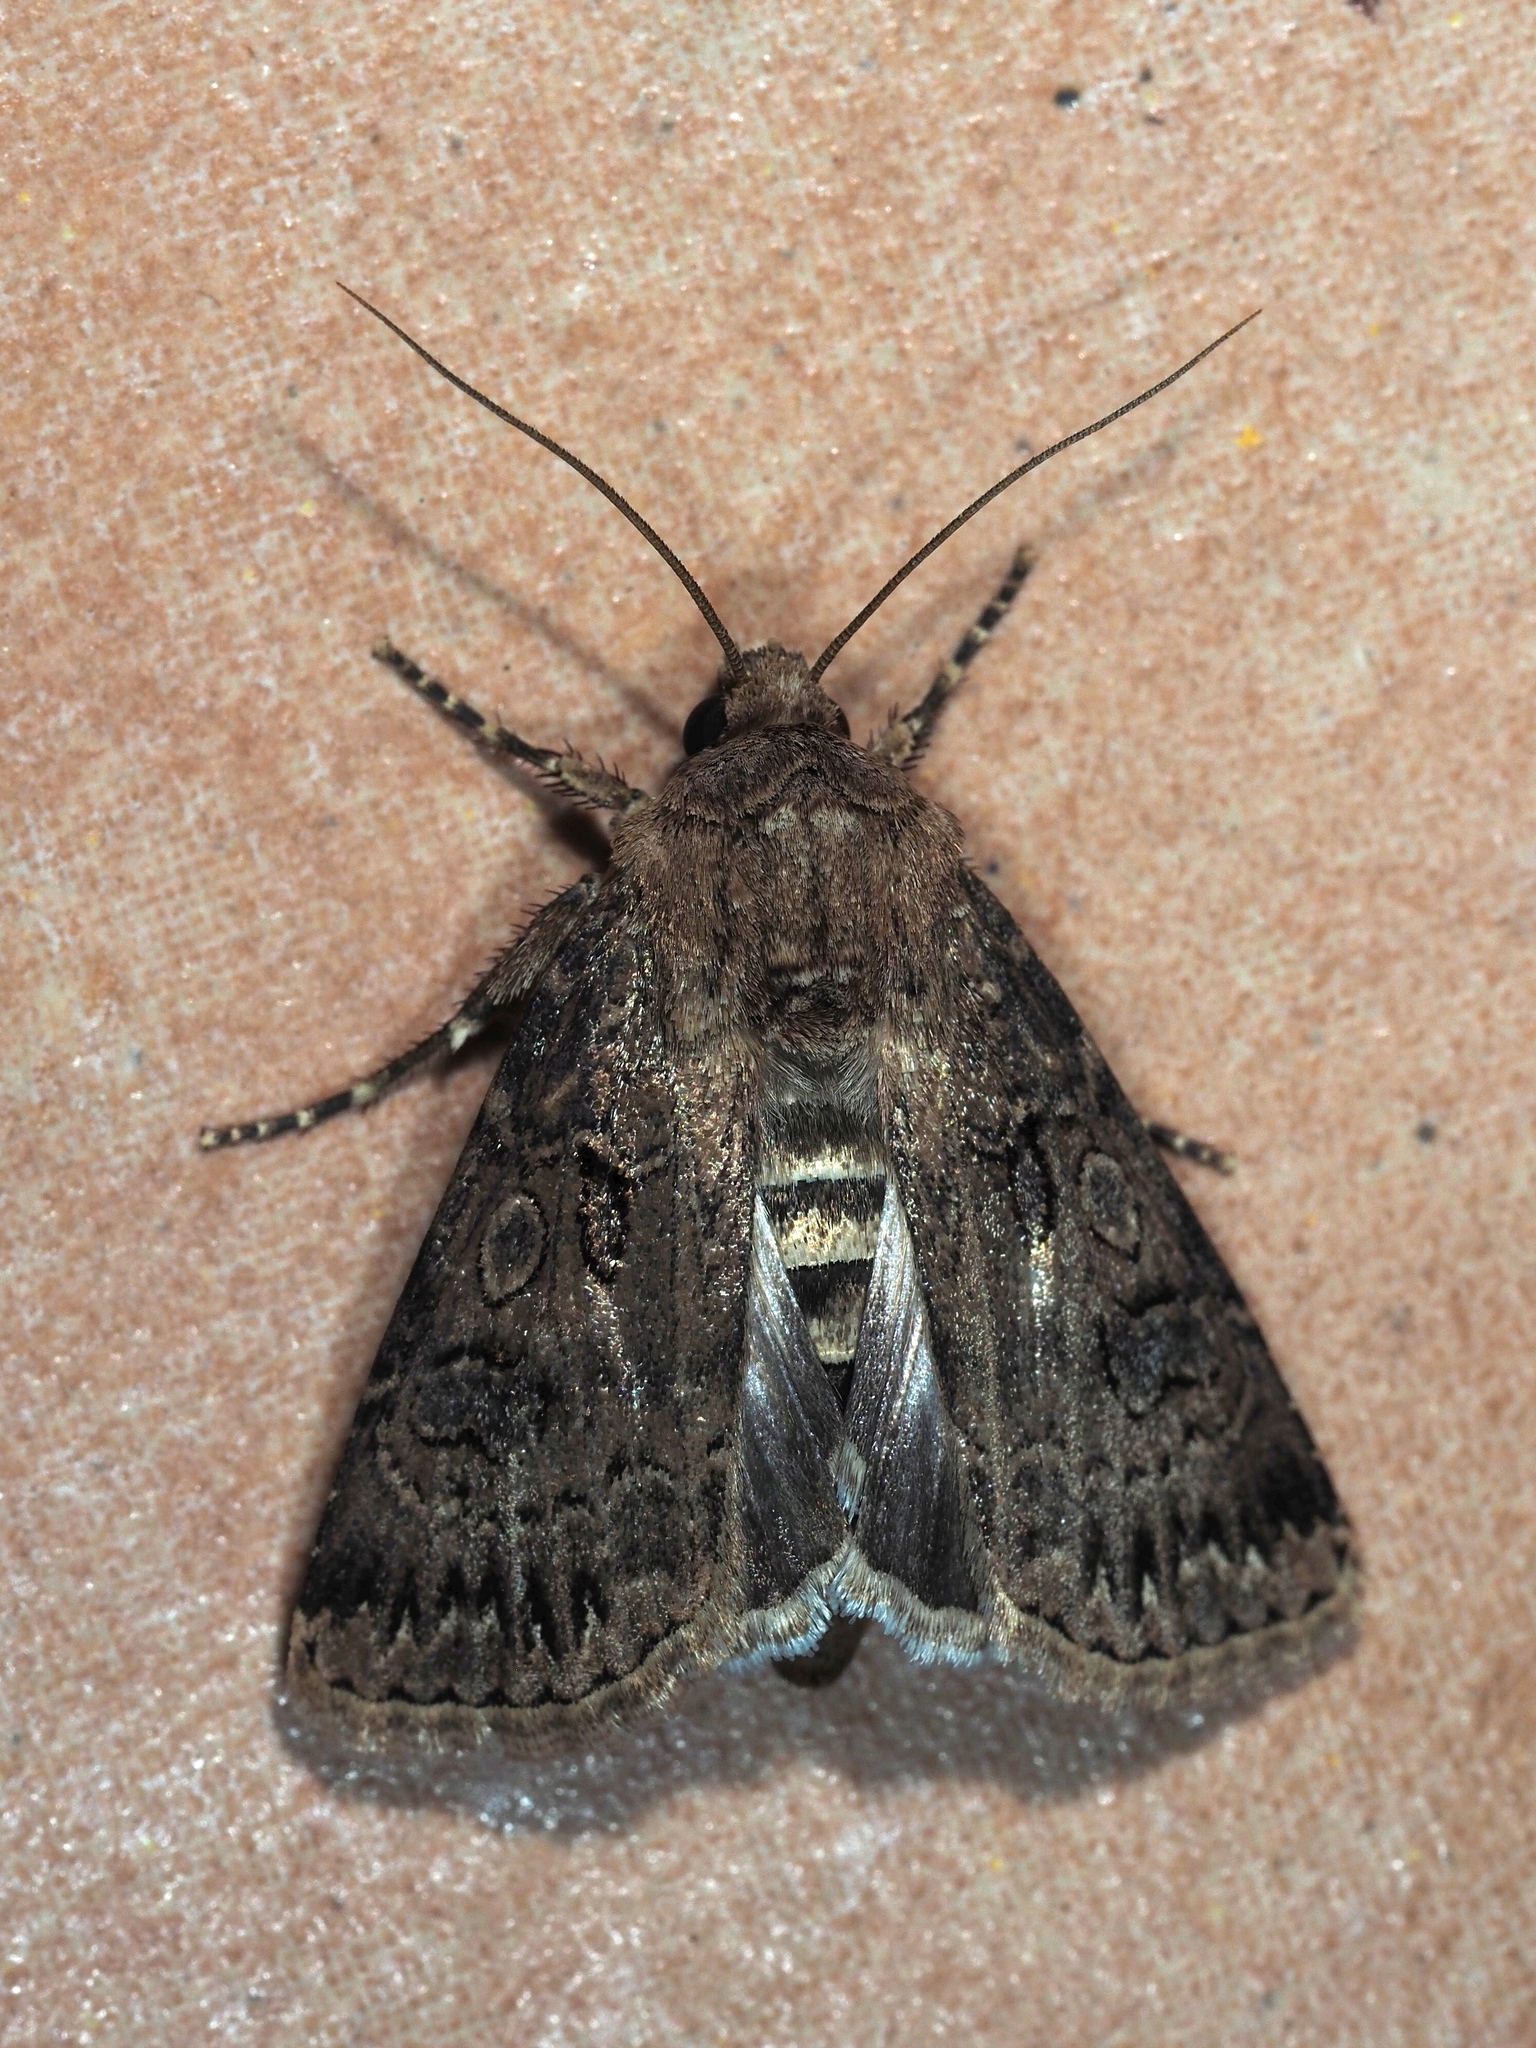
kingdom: Animalia
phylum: Arthropoda
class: Insecta
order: Lepidoptera
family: Noctuidae
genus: Agrotis
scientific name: Agrotis bigramma
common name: Great dart
